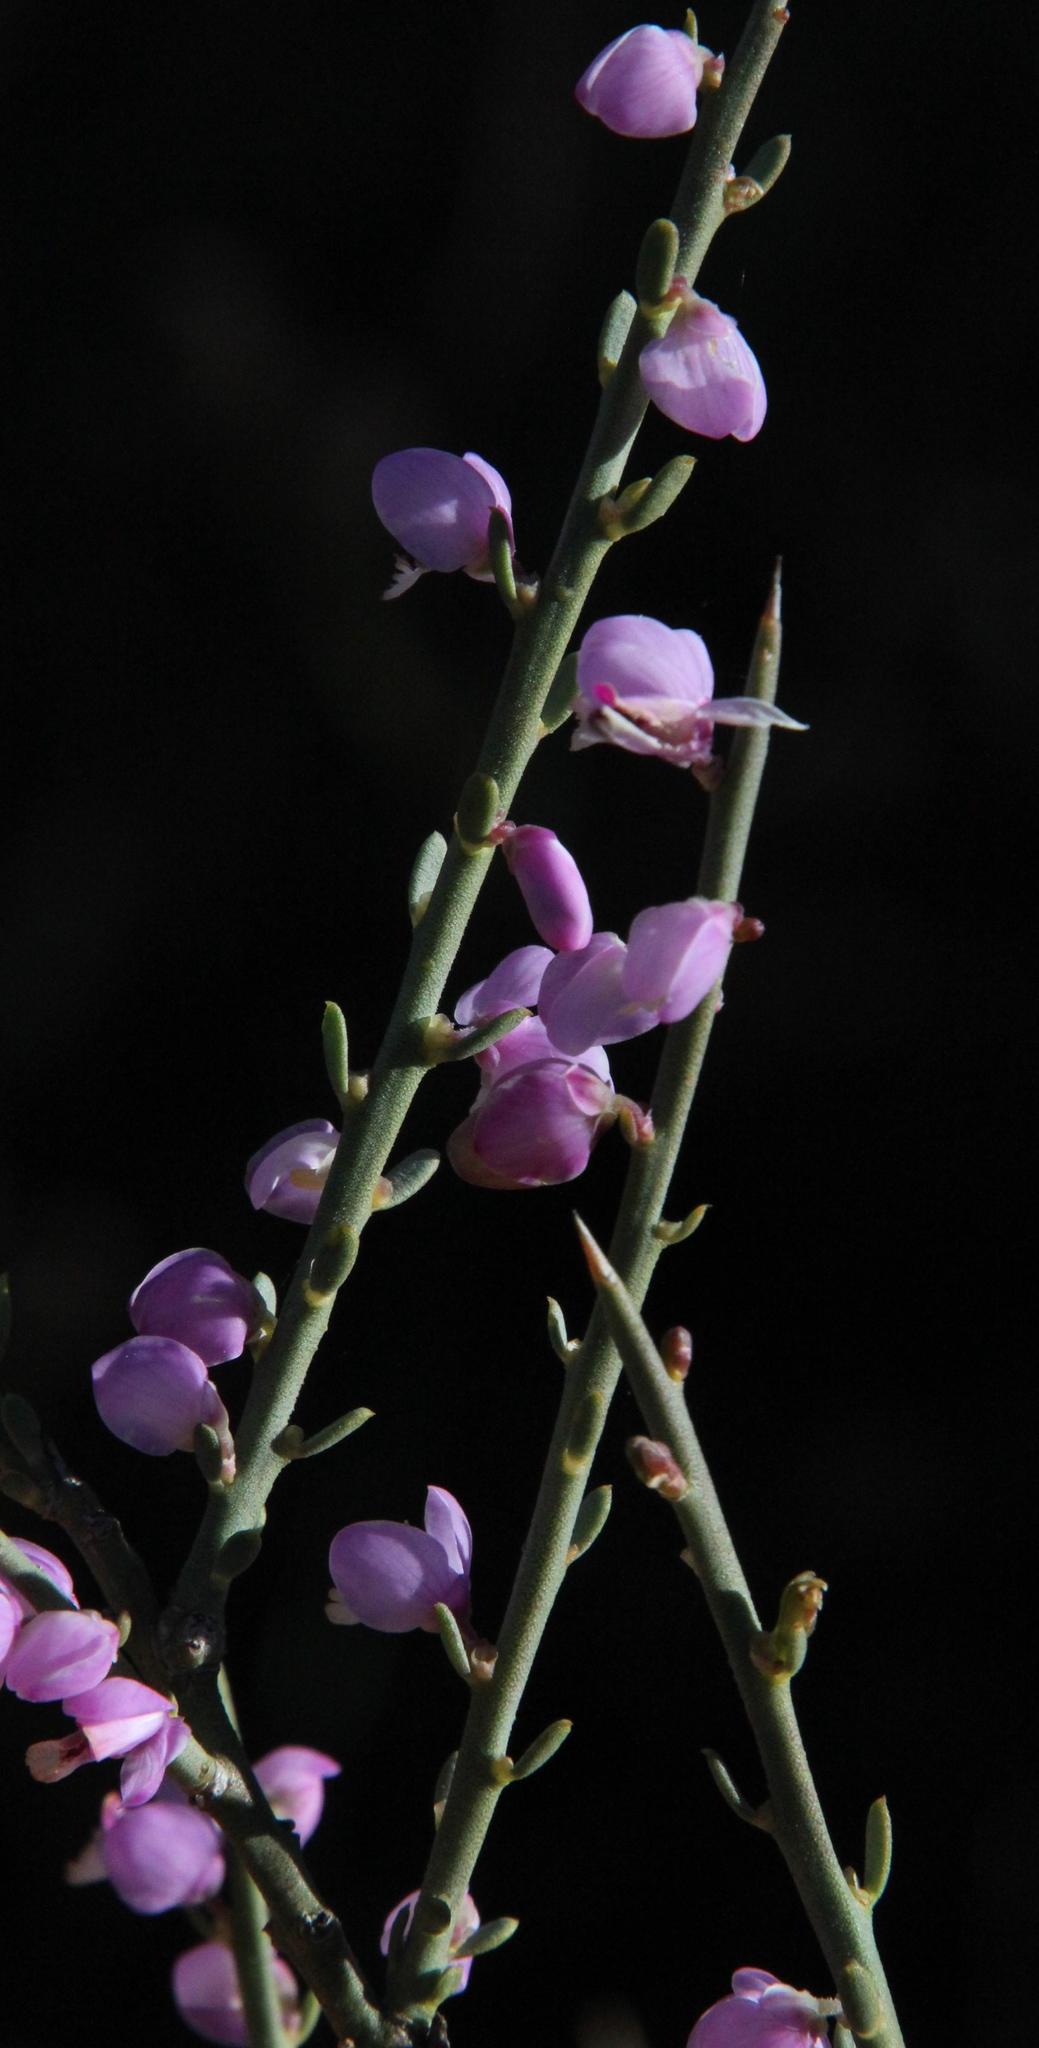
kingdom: Plantae
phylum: Tracheophyta
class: Magnoliopsida
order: Fabales
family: Polygalaceae
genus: Muraltia
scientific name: Muraltia spinosa
